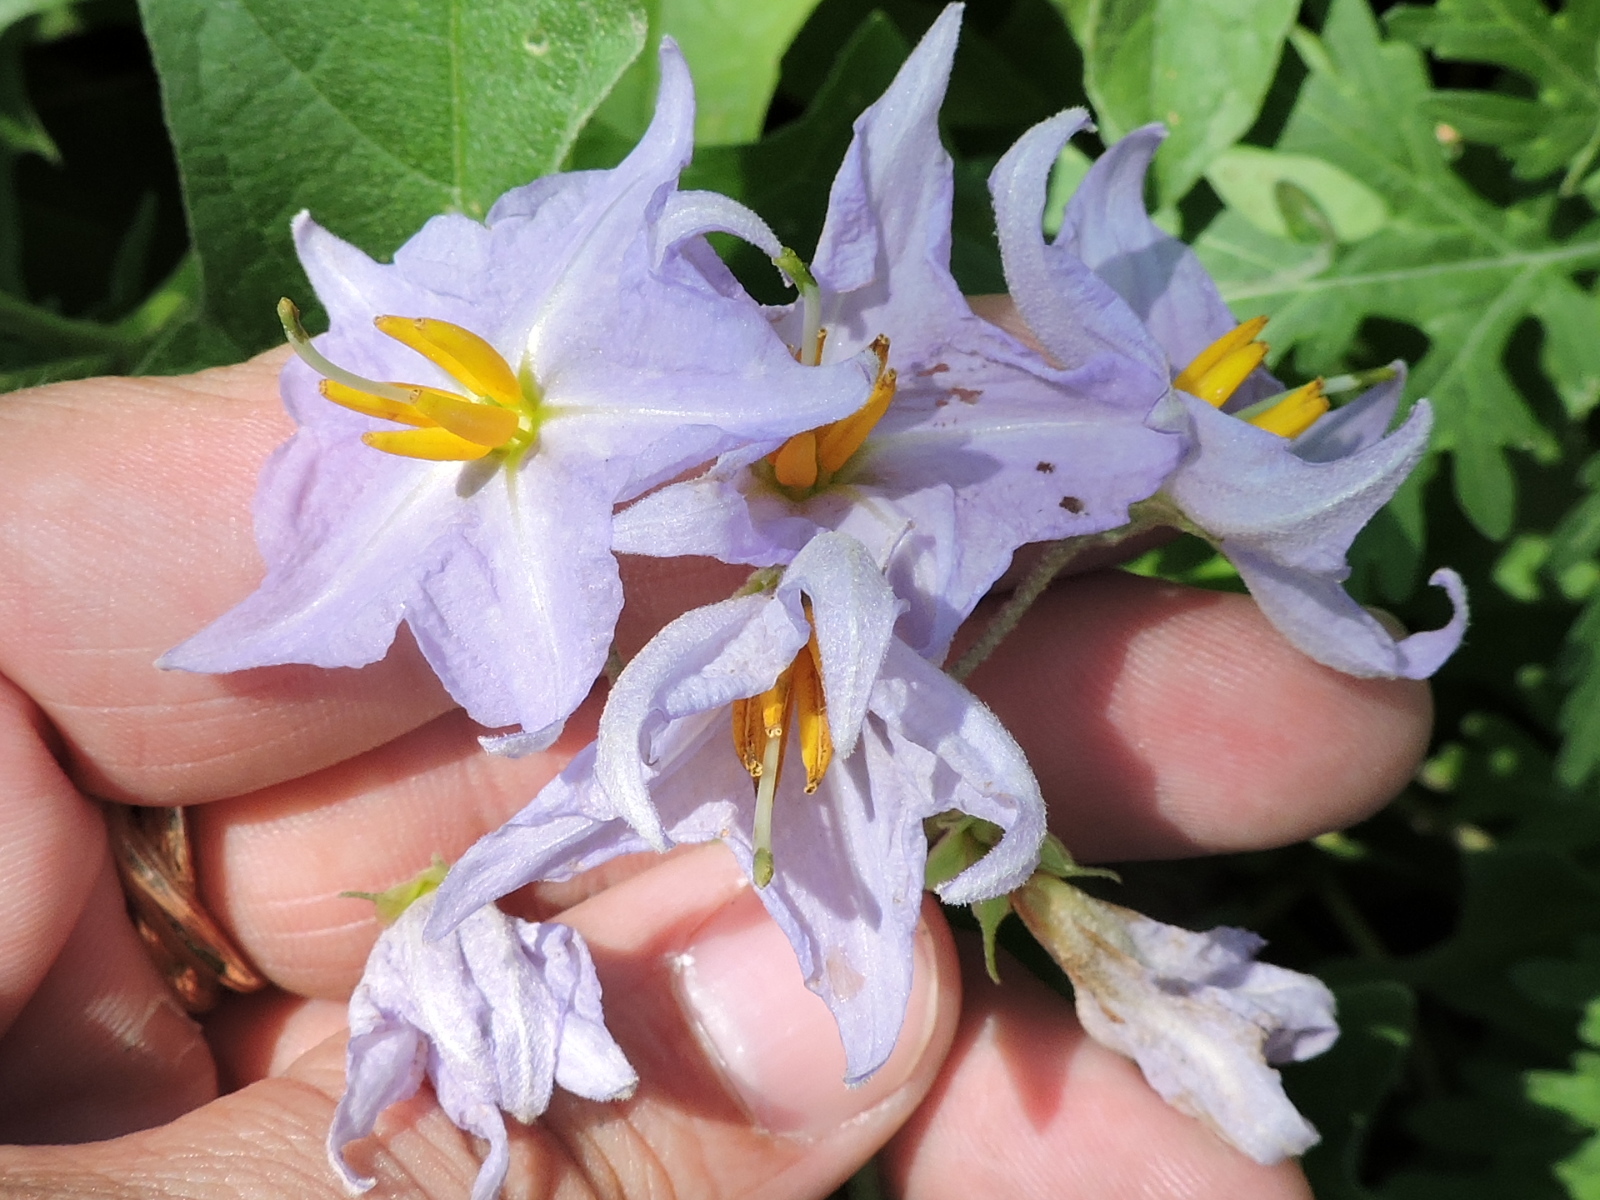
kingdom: Plantae
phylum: Tracheophyta
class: Magnoliopsida
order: Solanales
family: Solanaceae
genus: Solanum
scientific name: Solanum dimidiatum
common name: Carolina horse-nettle
